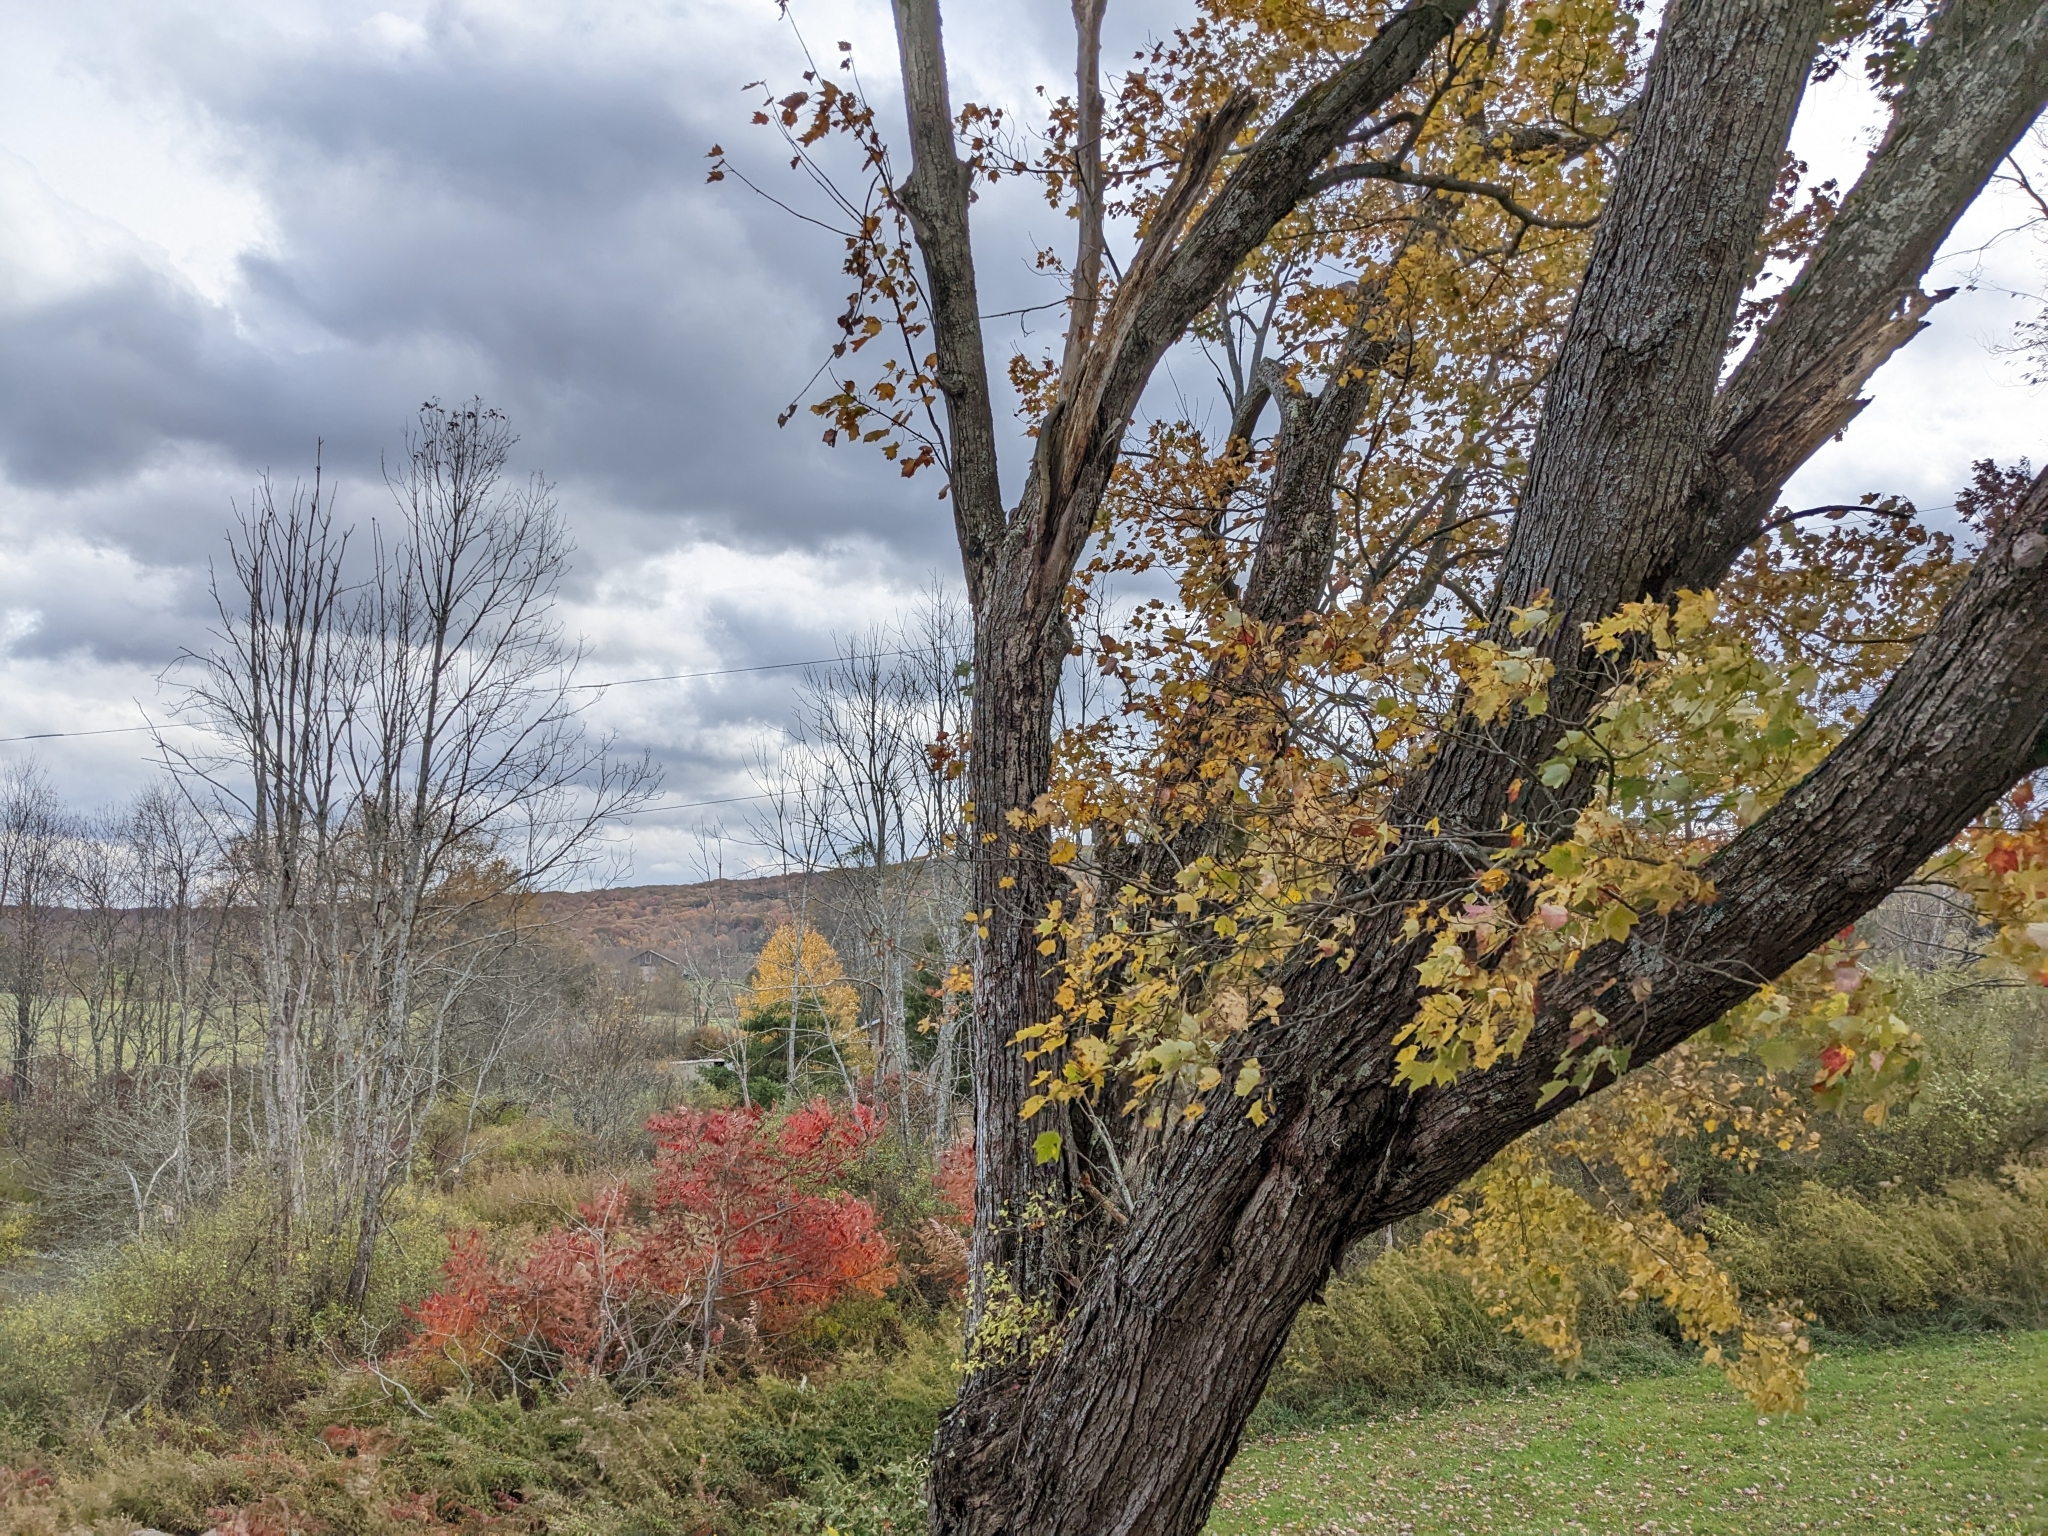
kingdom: Plantae
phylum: Tracheophyta
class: Magnoliopsida
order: Sapindales
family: Sapindaceae
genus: Acer
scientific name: Acer rubrum
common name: Red maple
